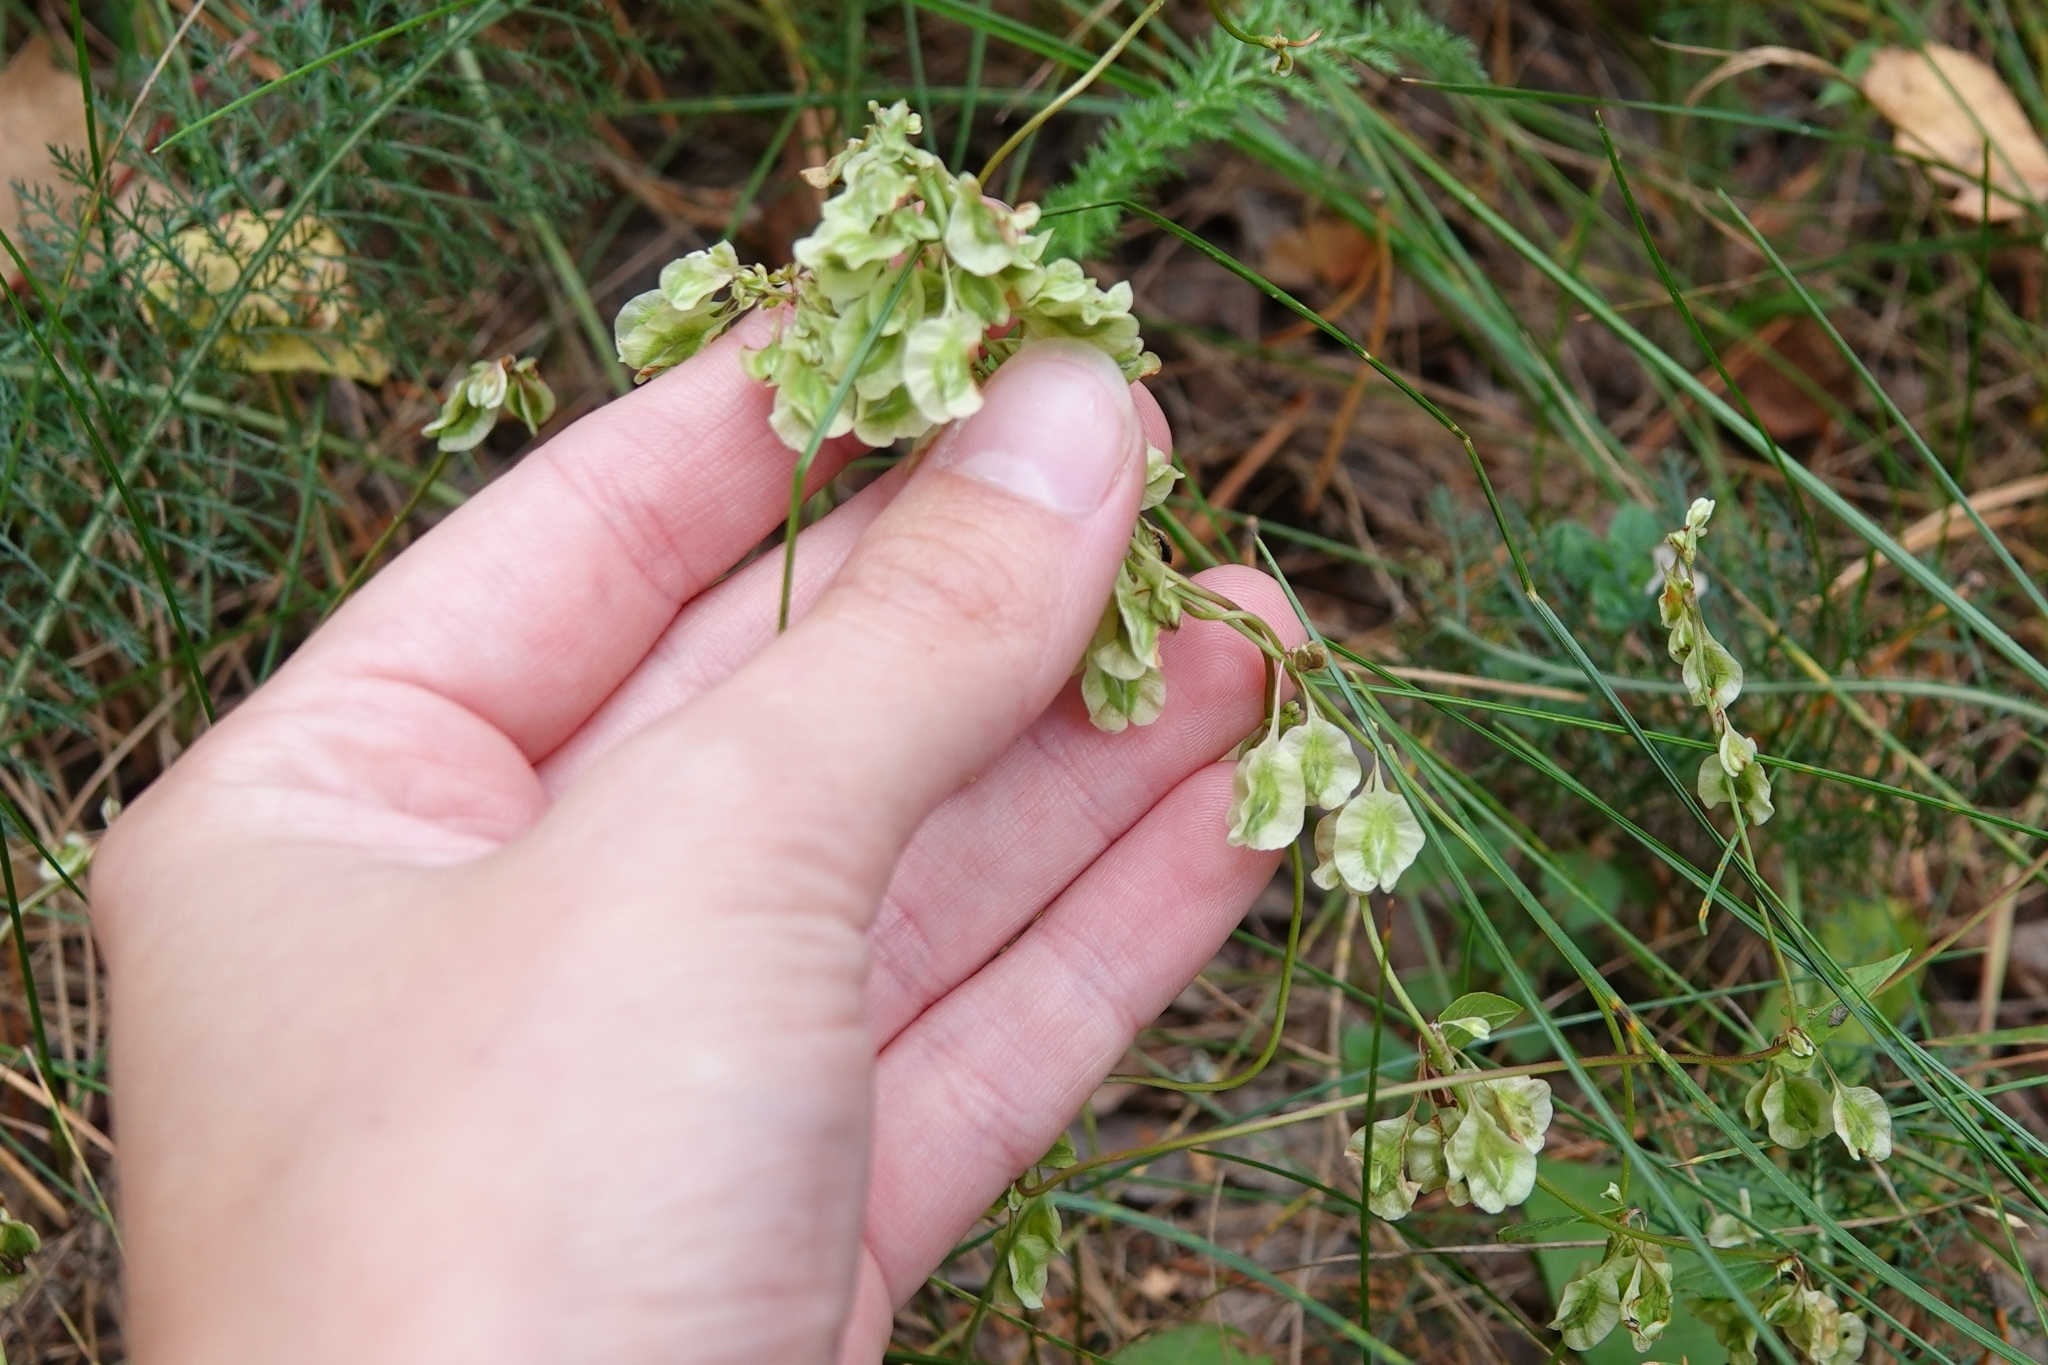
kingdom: Plantae
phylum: Tracheophyta
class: Magnoliopsida
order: Caryophyllales
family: Polygonaceae
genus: Fallopia
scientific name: Fallopia dumetorum
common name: Copse-bindweed
